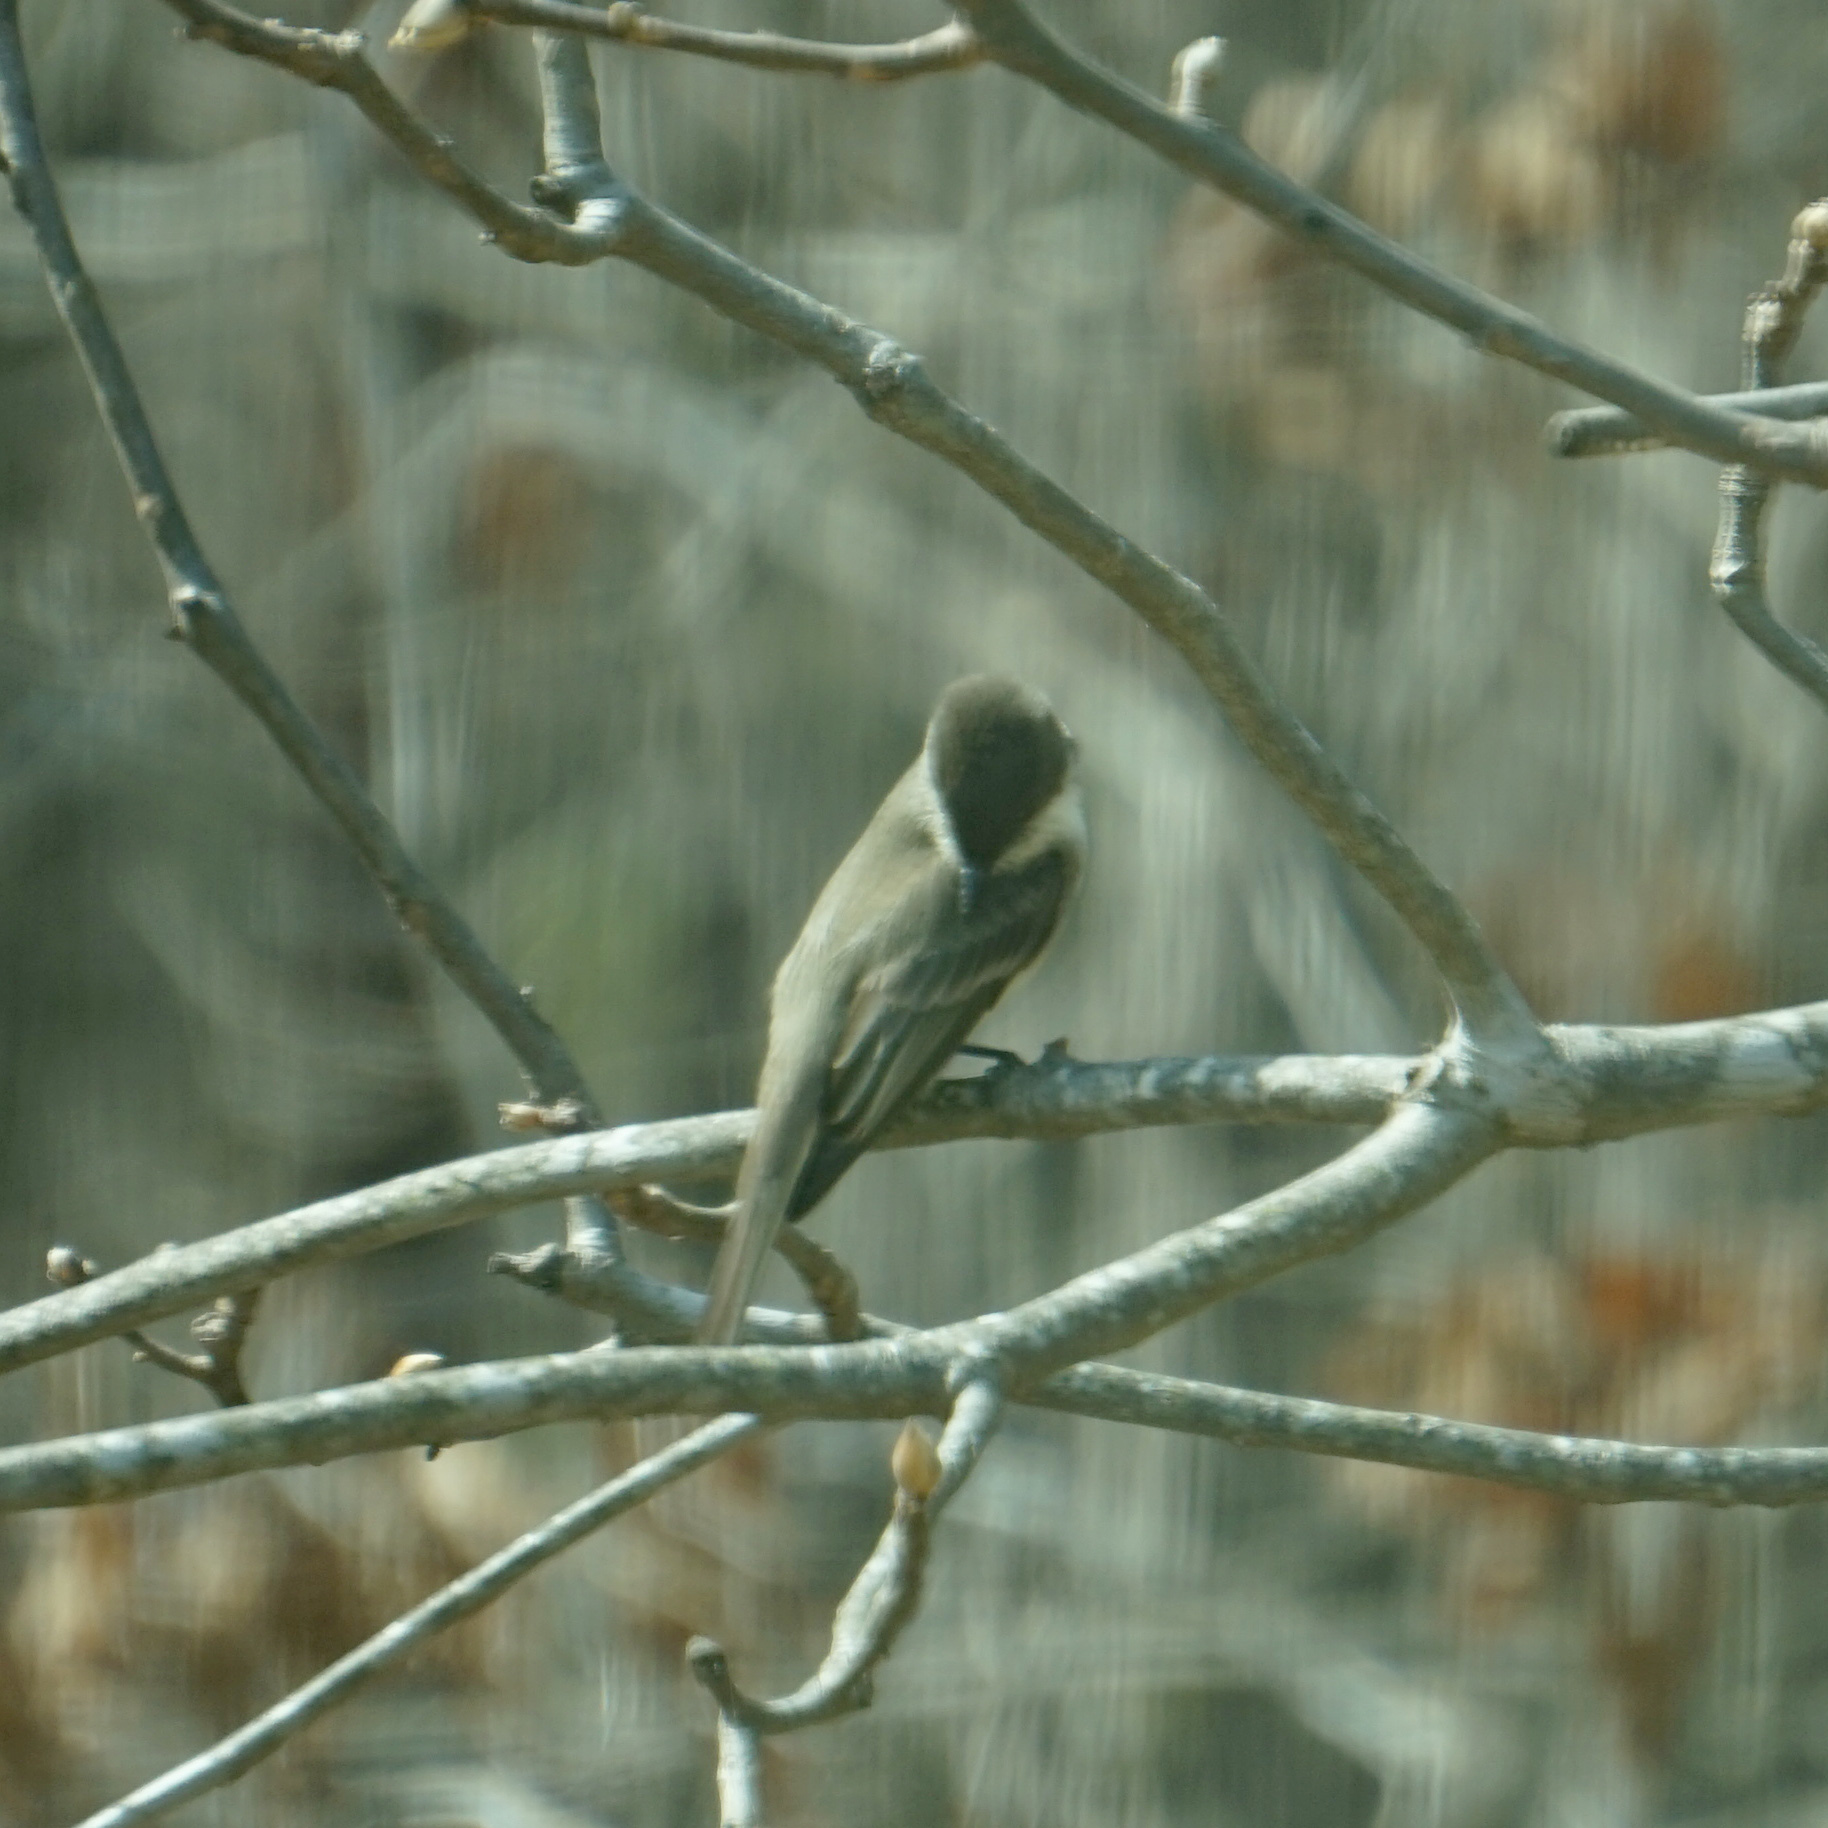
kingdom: Animalia
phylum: Chordata
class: Aves
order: Passeriformes
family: Tyrannidae
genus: Sayornis
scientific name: Sayornis phoebe
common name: Eastern phoebe
